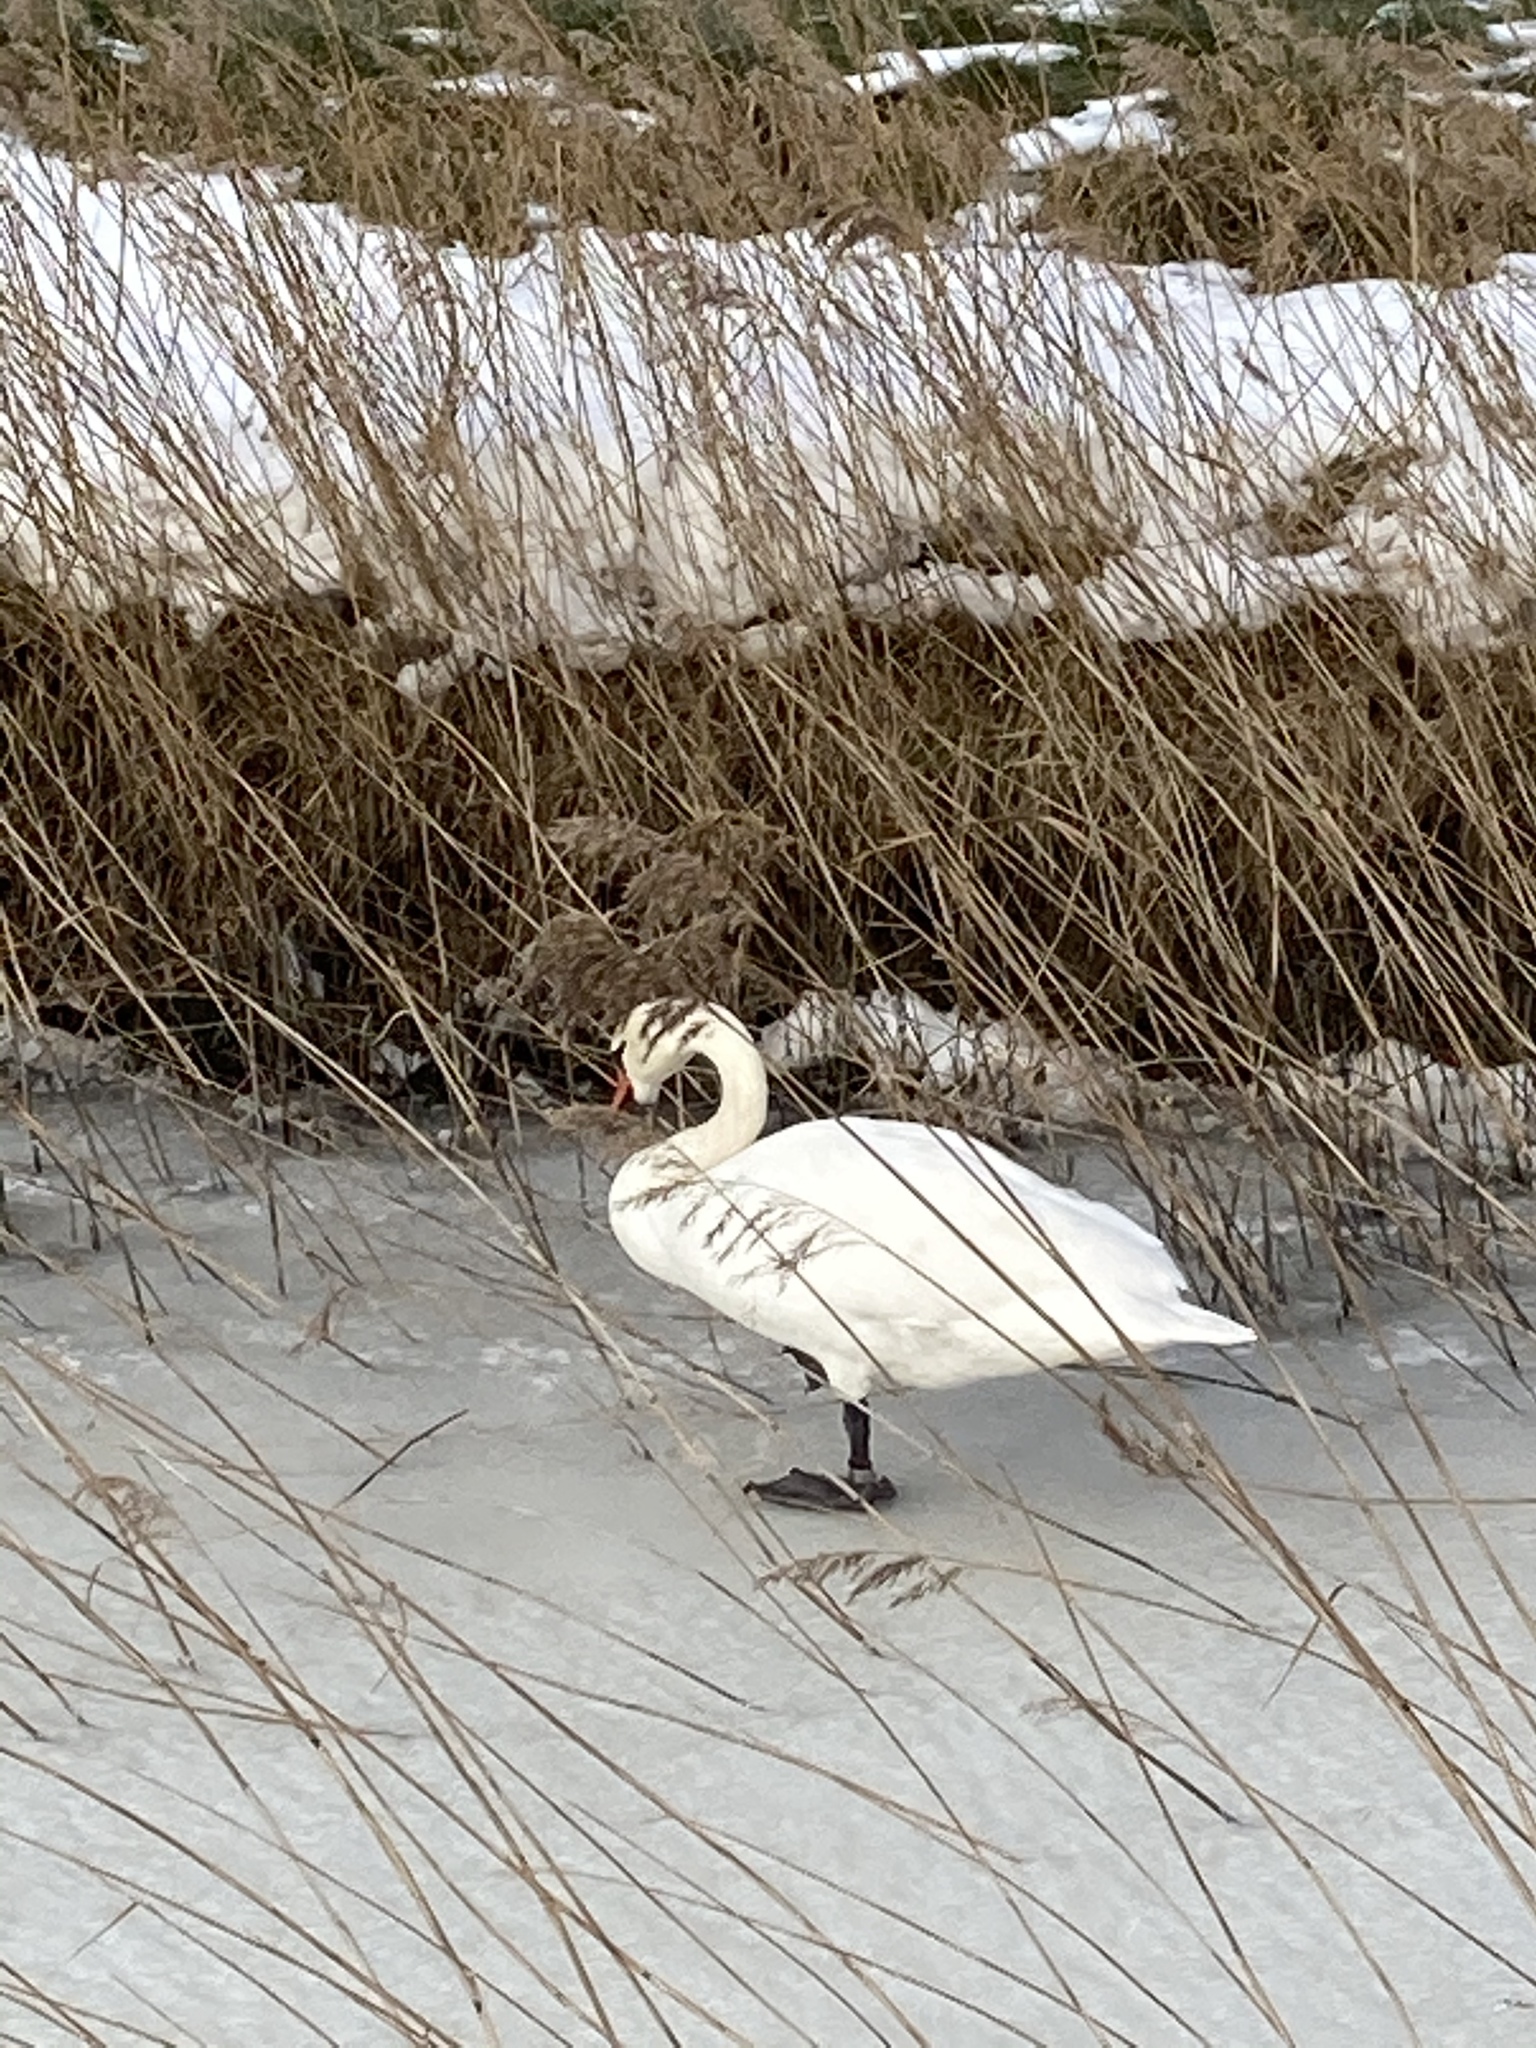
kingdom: Animalia
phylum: Chordata
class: Aves
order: Anseriformes
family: Anatidae
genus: Cygnus
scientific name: Cygnus olor
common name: Mute swan
